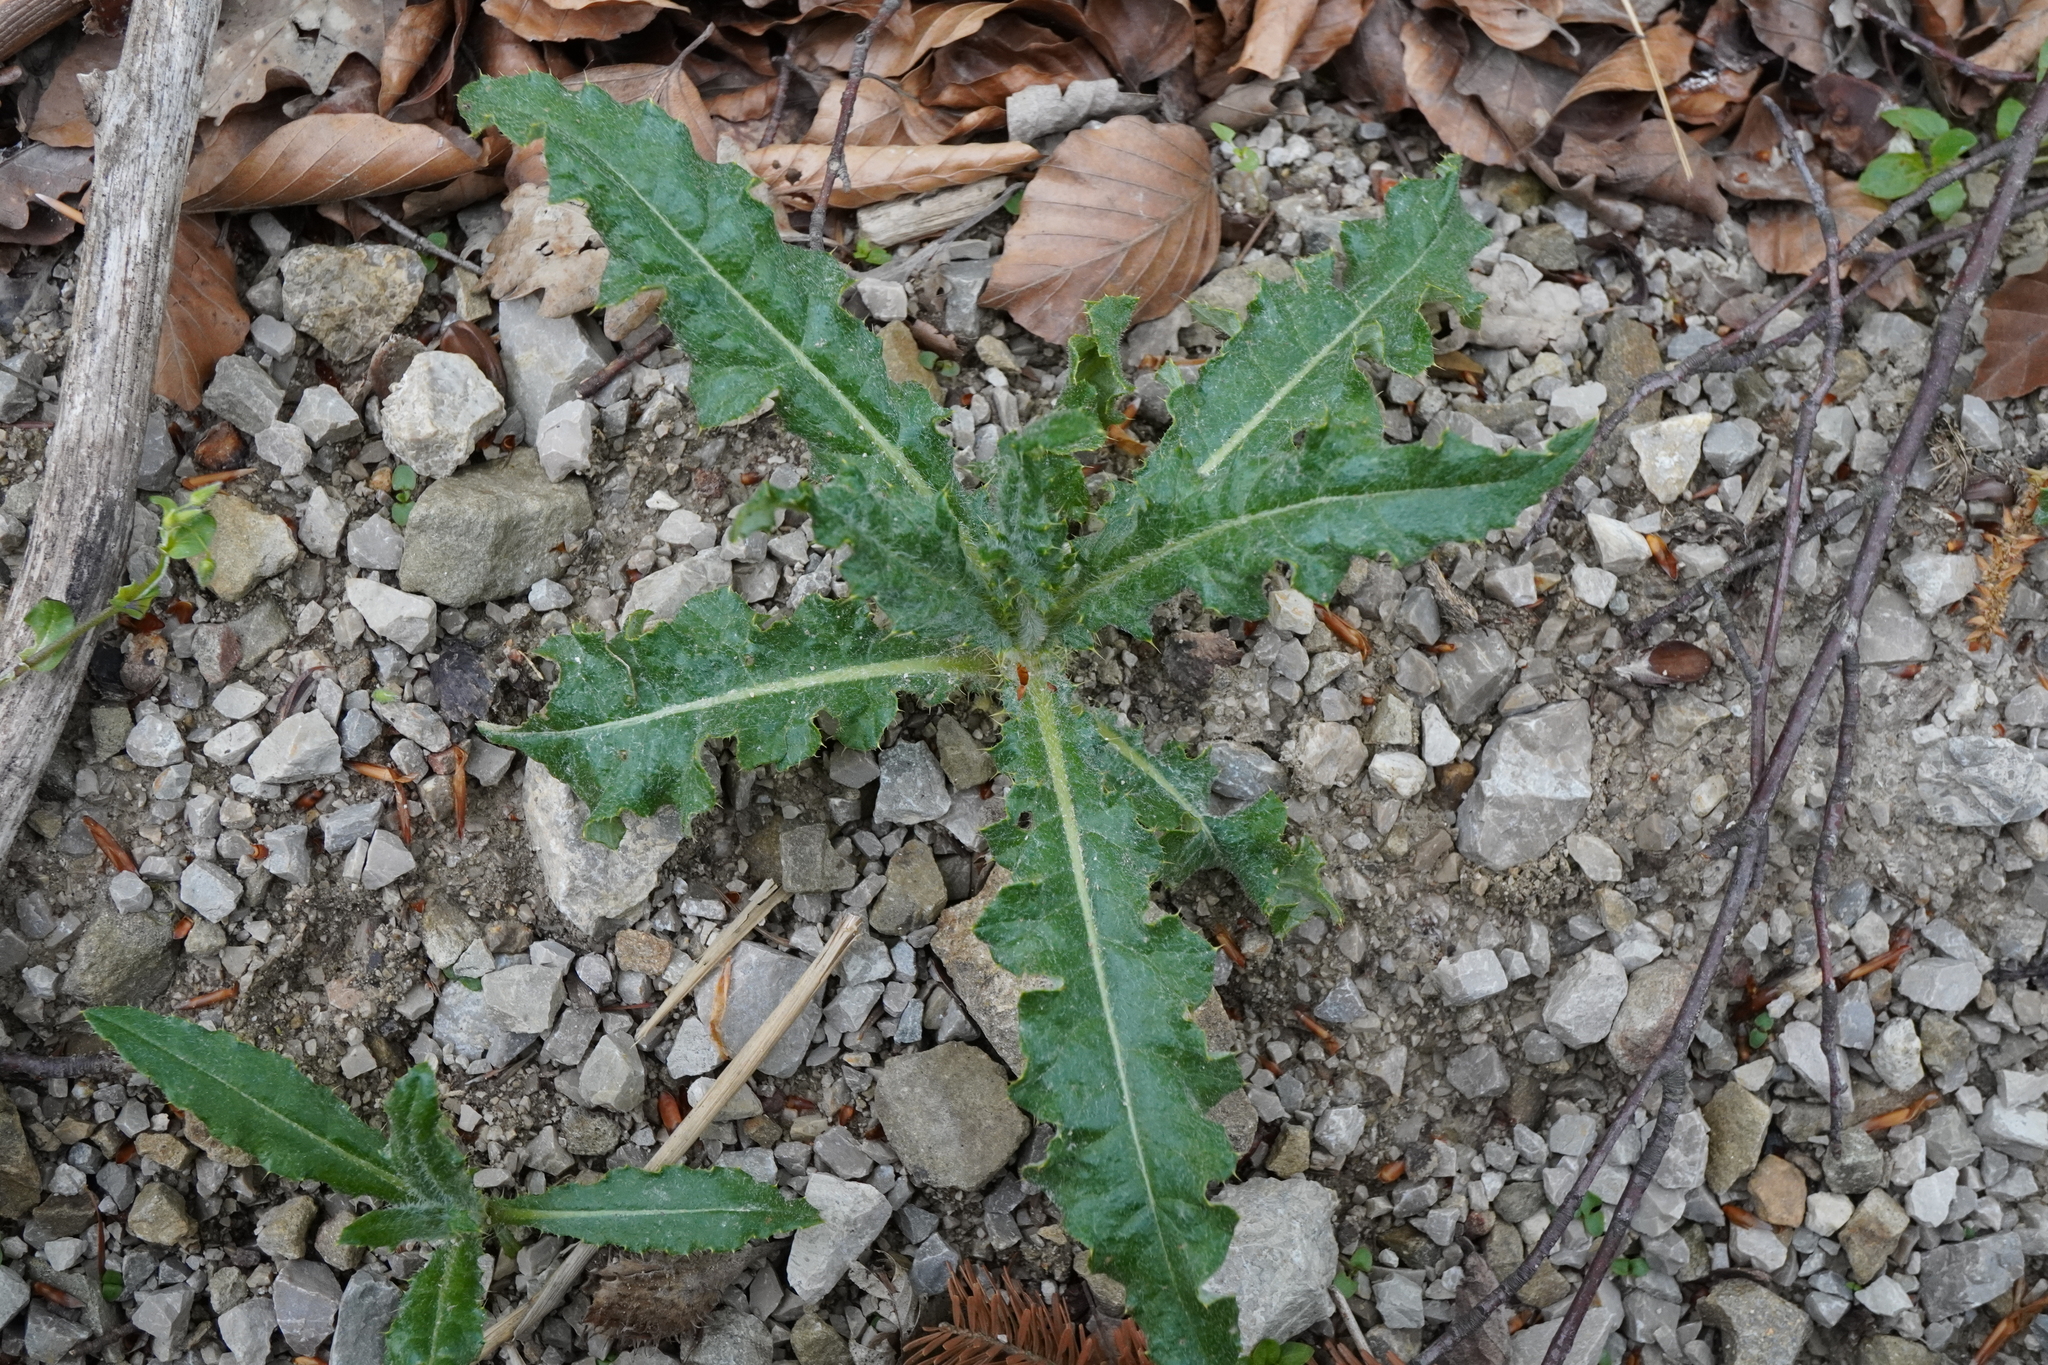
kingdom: Plantae
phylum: Tracheophyta
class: Magnoliopsida
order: Asterales
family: Asteraceae
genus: Cirsium
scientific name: Cirsium arvense
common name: Creeping thistle
